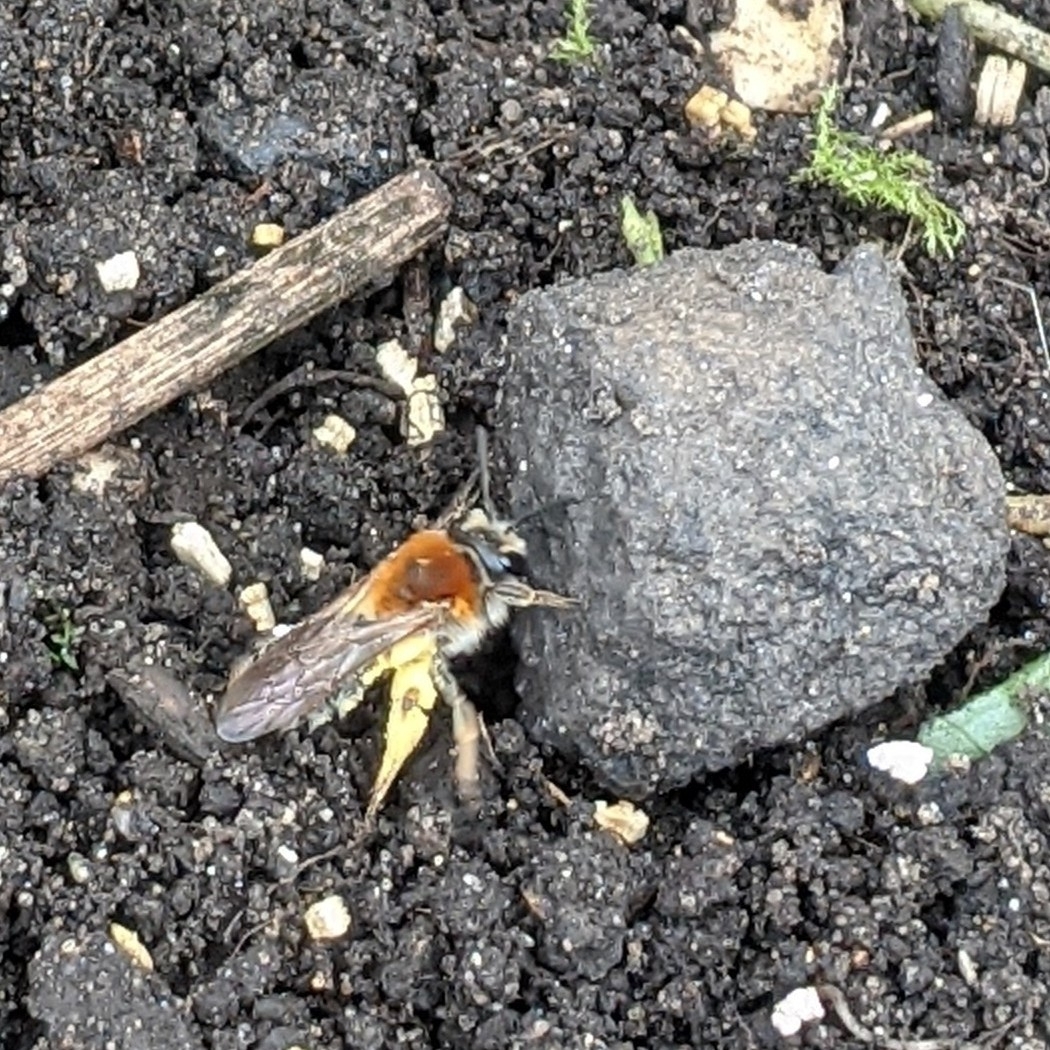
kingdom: Animalia
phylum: Arthropoda
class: Insecta
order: Hymenoptera
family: Andrenidae
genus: Andrena
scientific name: Andrena haemorrhoa
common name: Early mining bee
